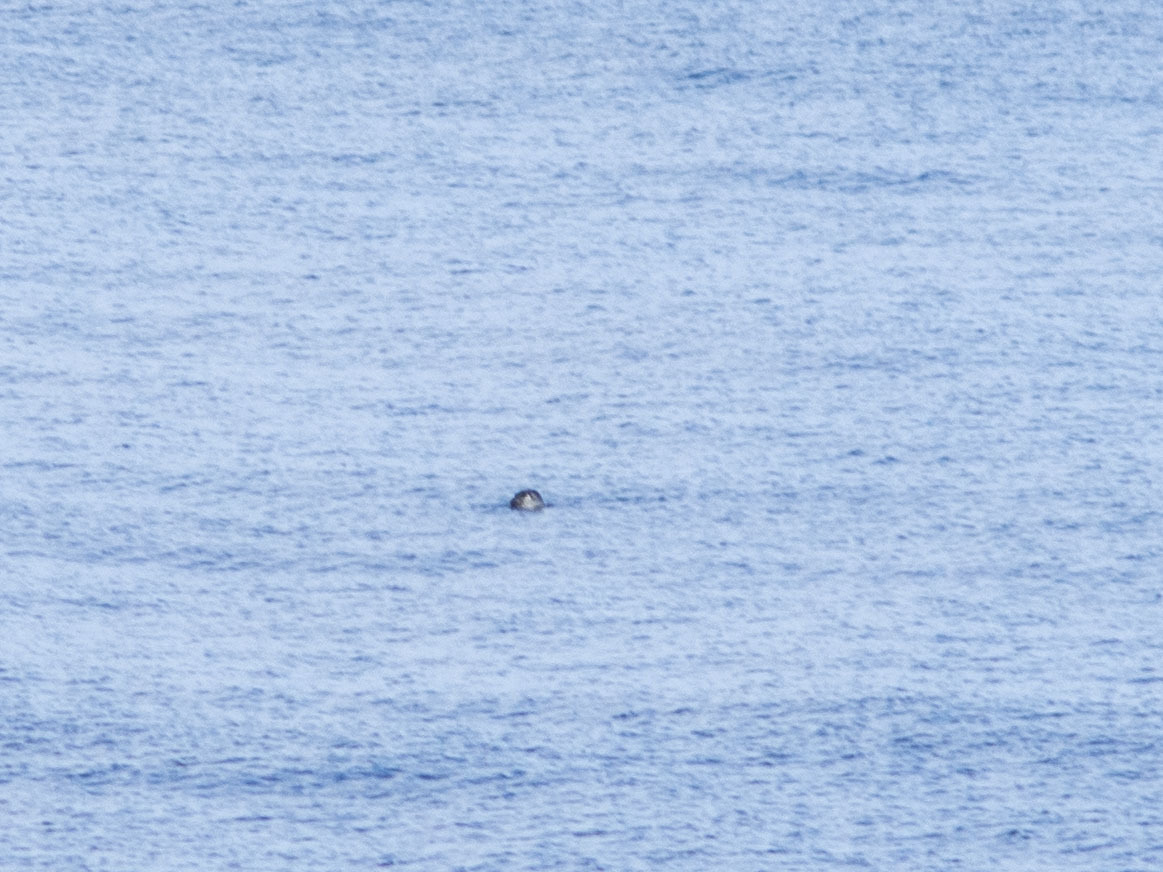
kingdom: Animalia
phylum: Chordata
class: Mammalia
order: Carnivora
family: Phocidae
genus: Pusa
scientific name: Pusa sibirica
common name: Baikal seal
